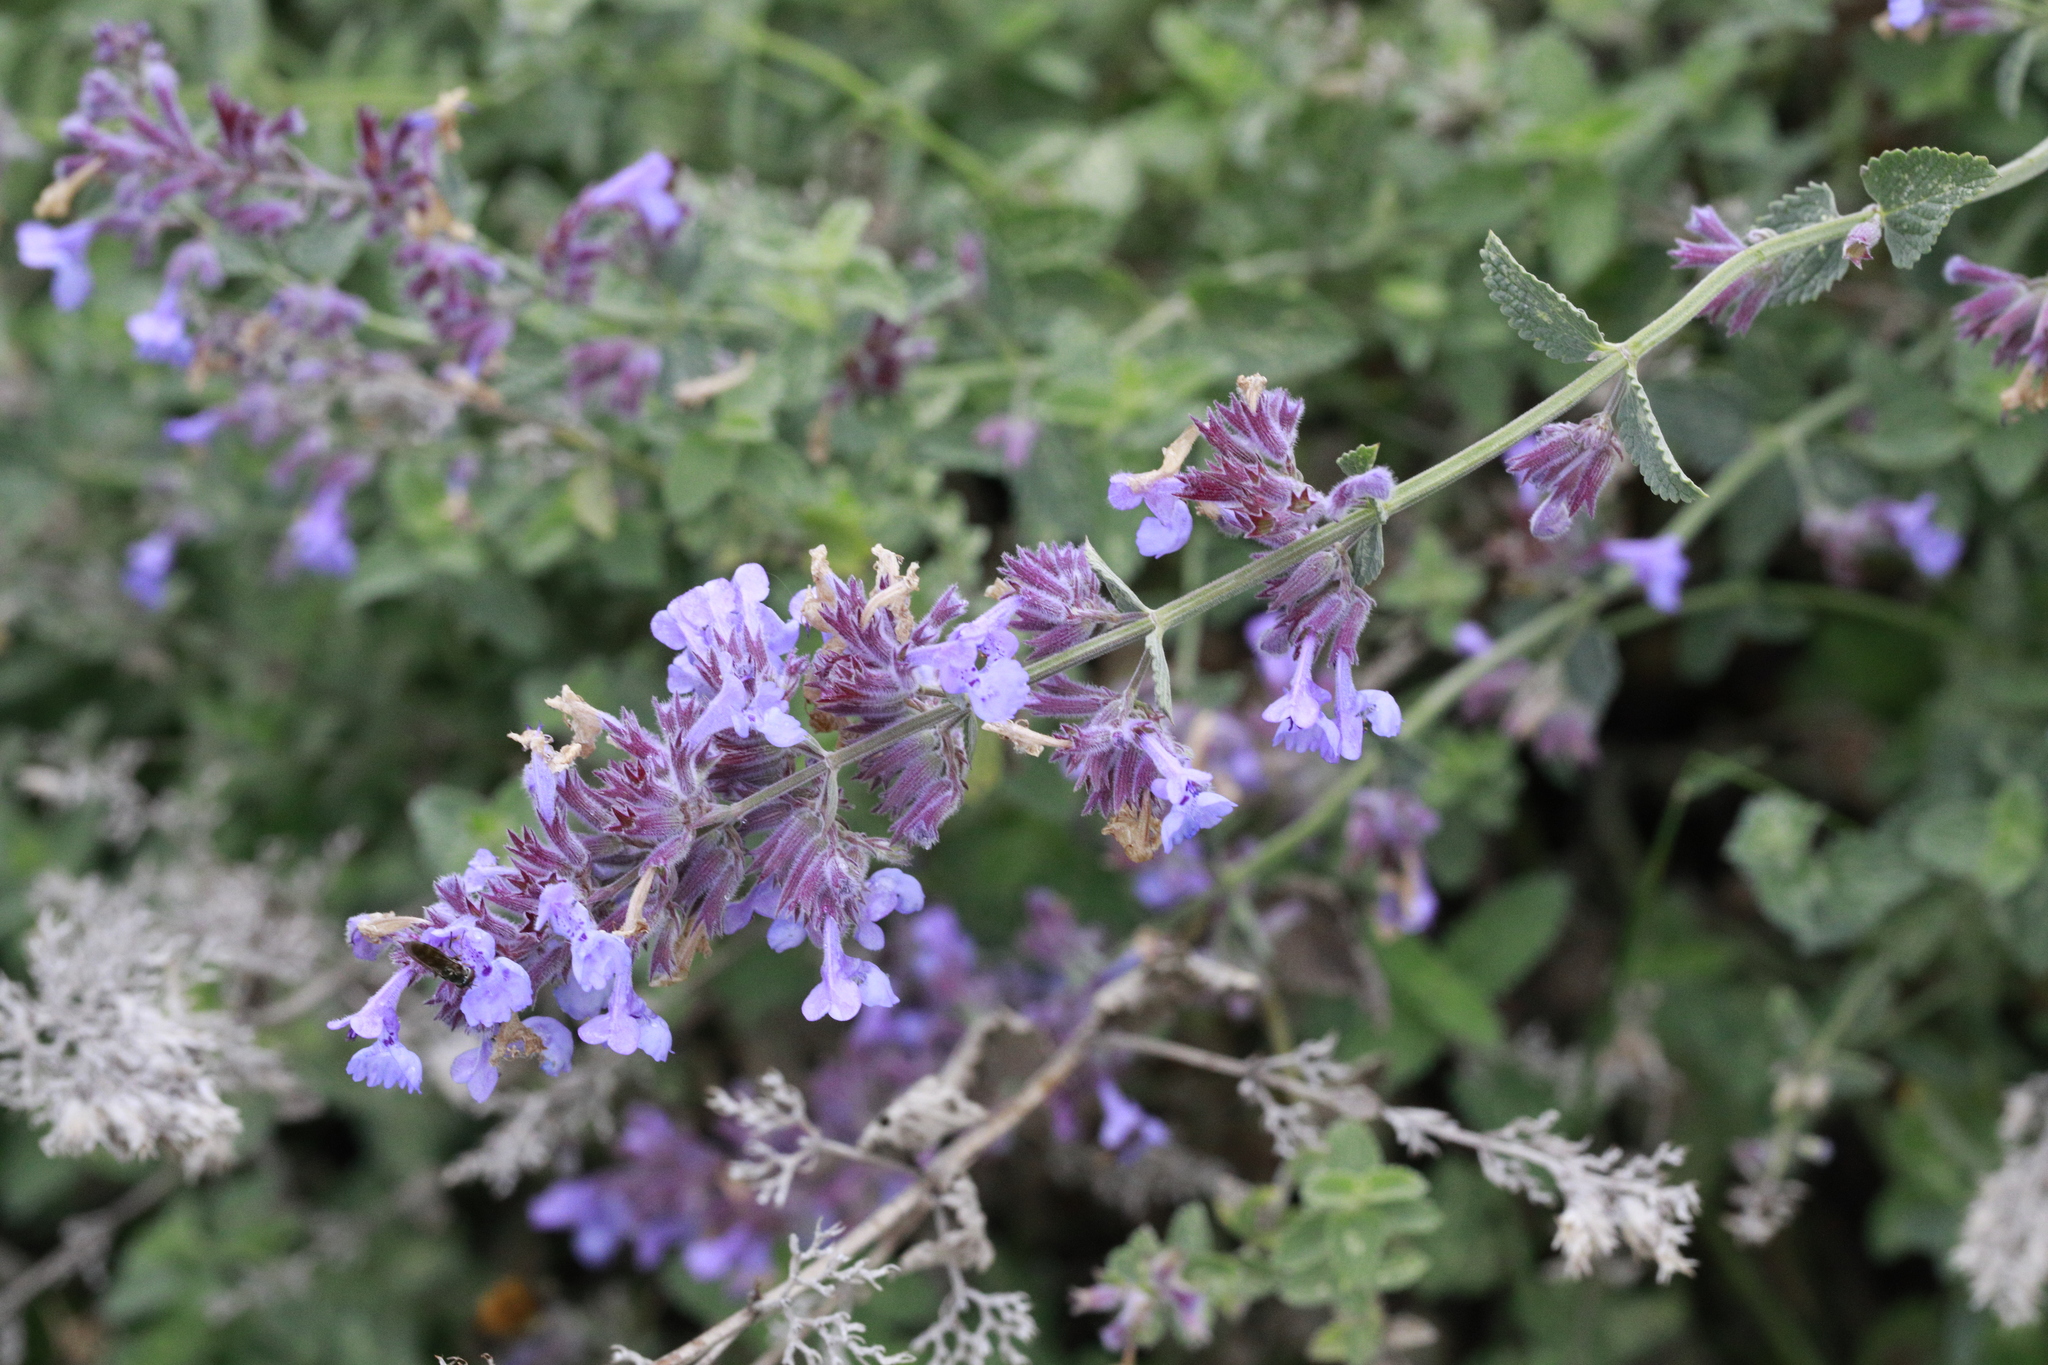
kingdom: Plantae
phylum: Tracheophyta
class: Magnoliopsida
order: Lamiales
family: Lamiaceae
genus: Nepeta
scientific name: Nepeta faassenii
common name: Catmint
